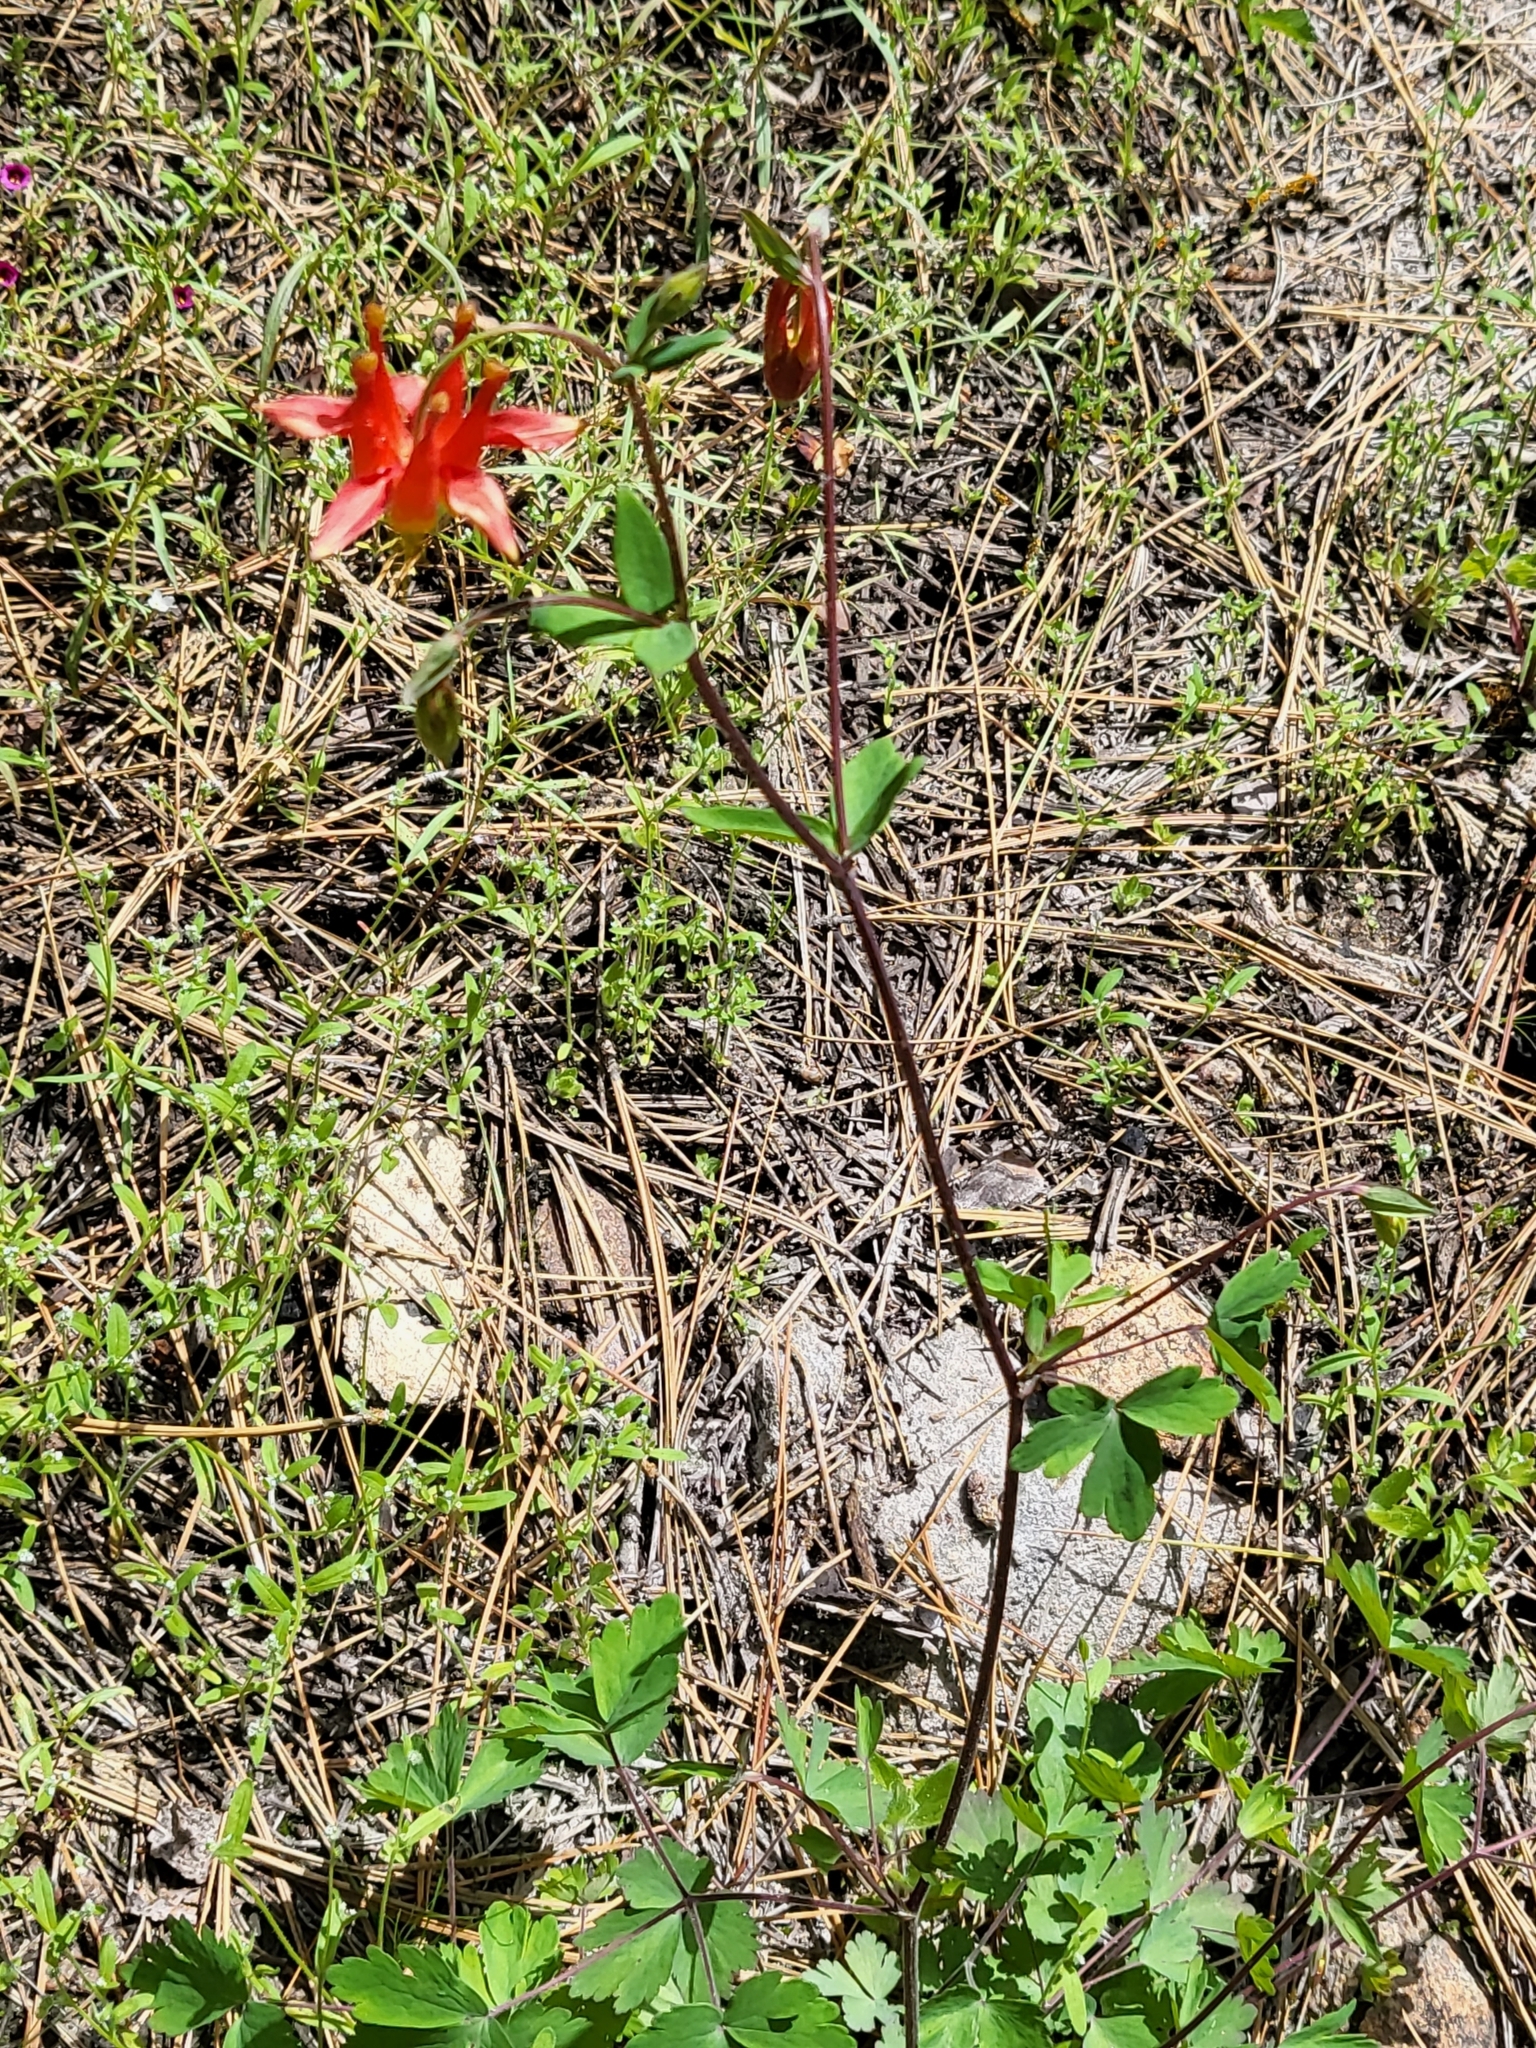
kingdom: Plantae
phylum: Tracheophyta
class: Magnoliopsida
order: Ranunculales
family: Ranunculaceae
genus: Aquilegia
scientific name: Aquilegia formosa
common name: Sitka columbine
